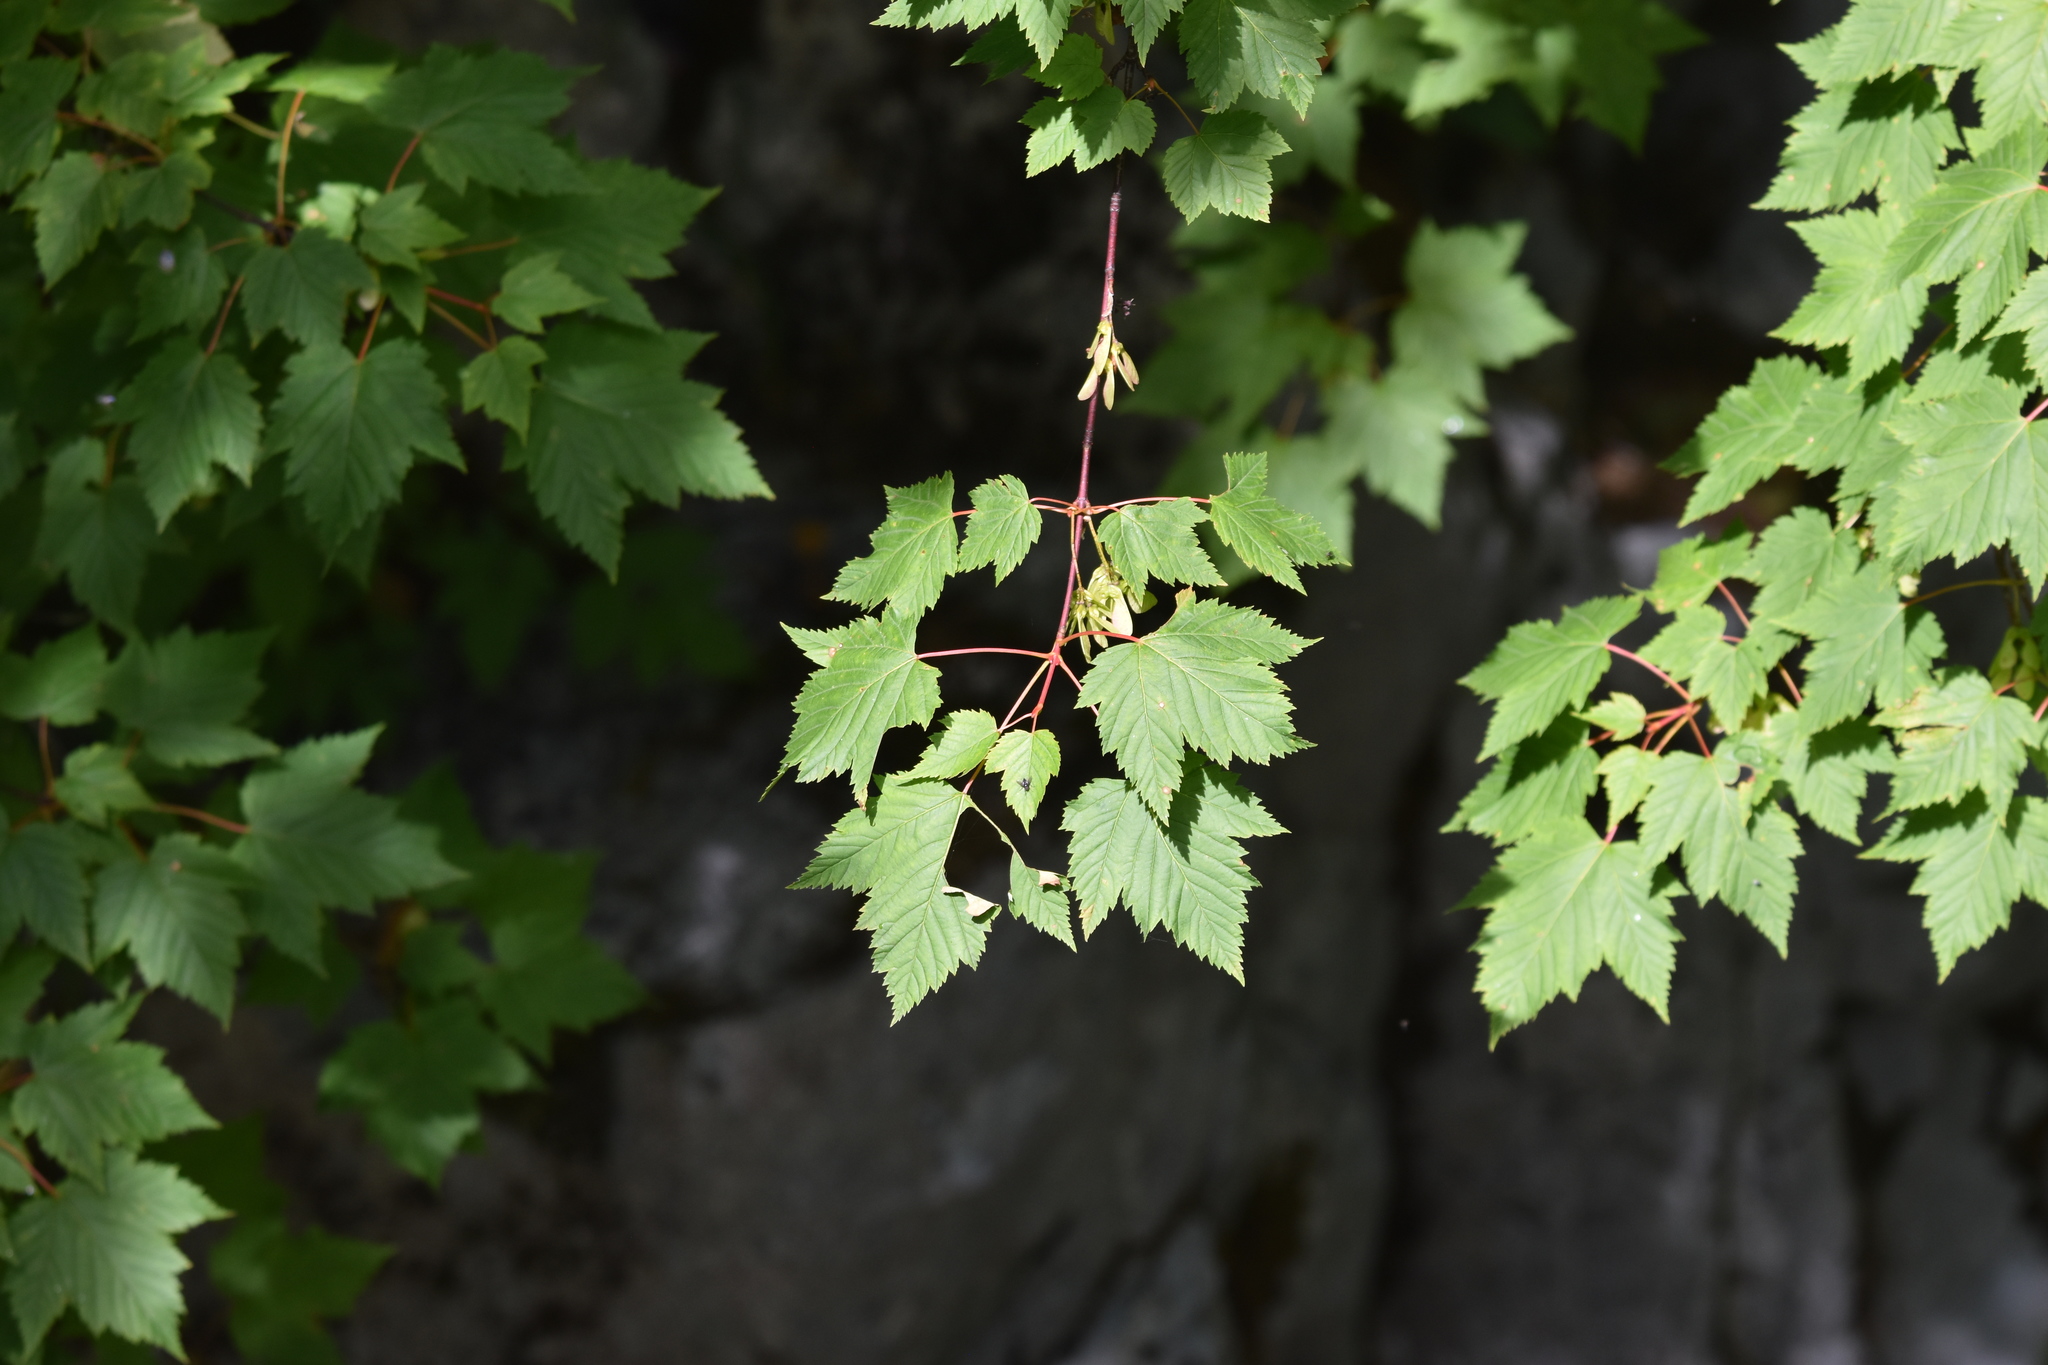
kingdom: Plantae
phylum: Tracheophyta
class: Magnoliopsida
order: Sapindales
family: Sapindaceae
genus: Acer
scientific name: Acer glabrum
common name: Rocky mountain maple
